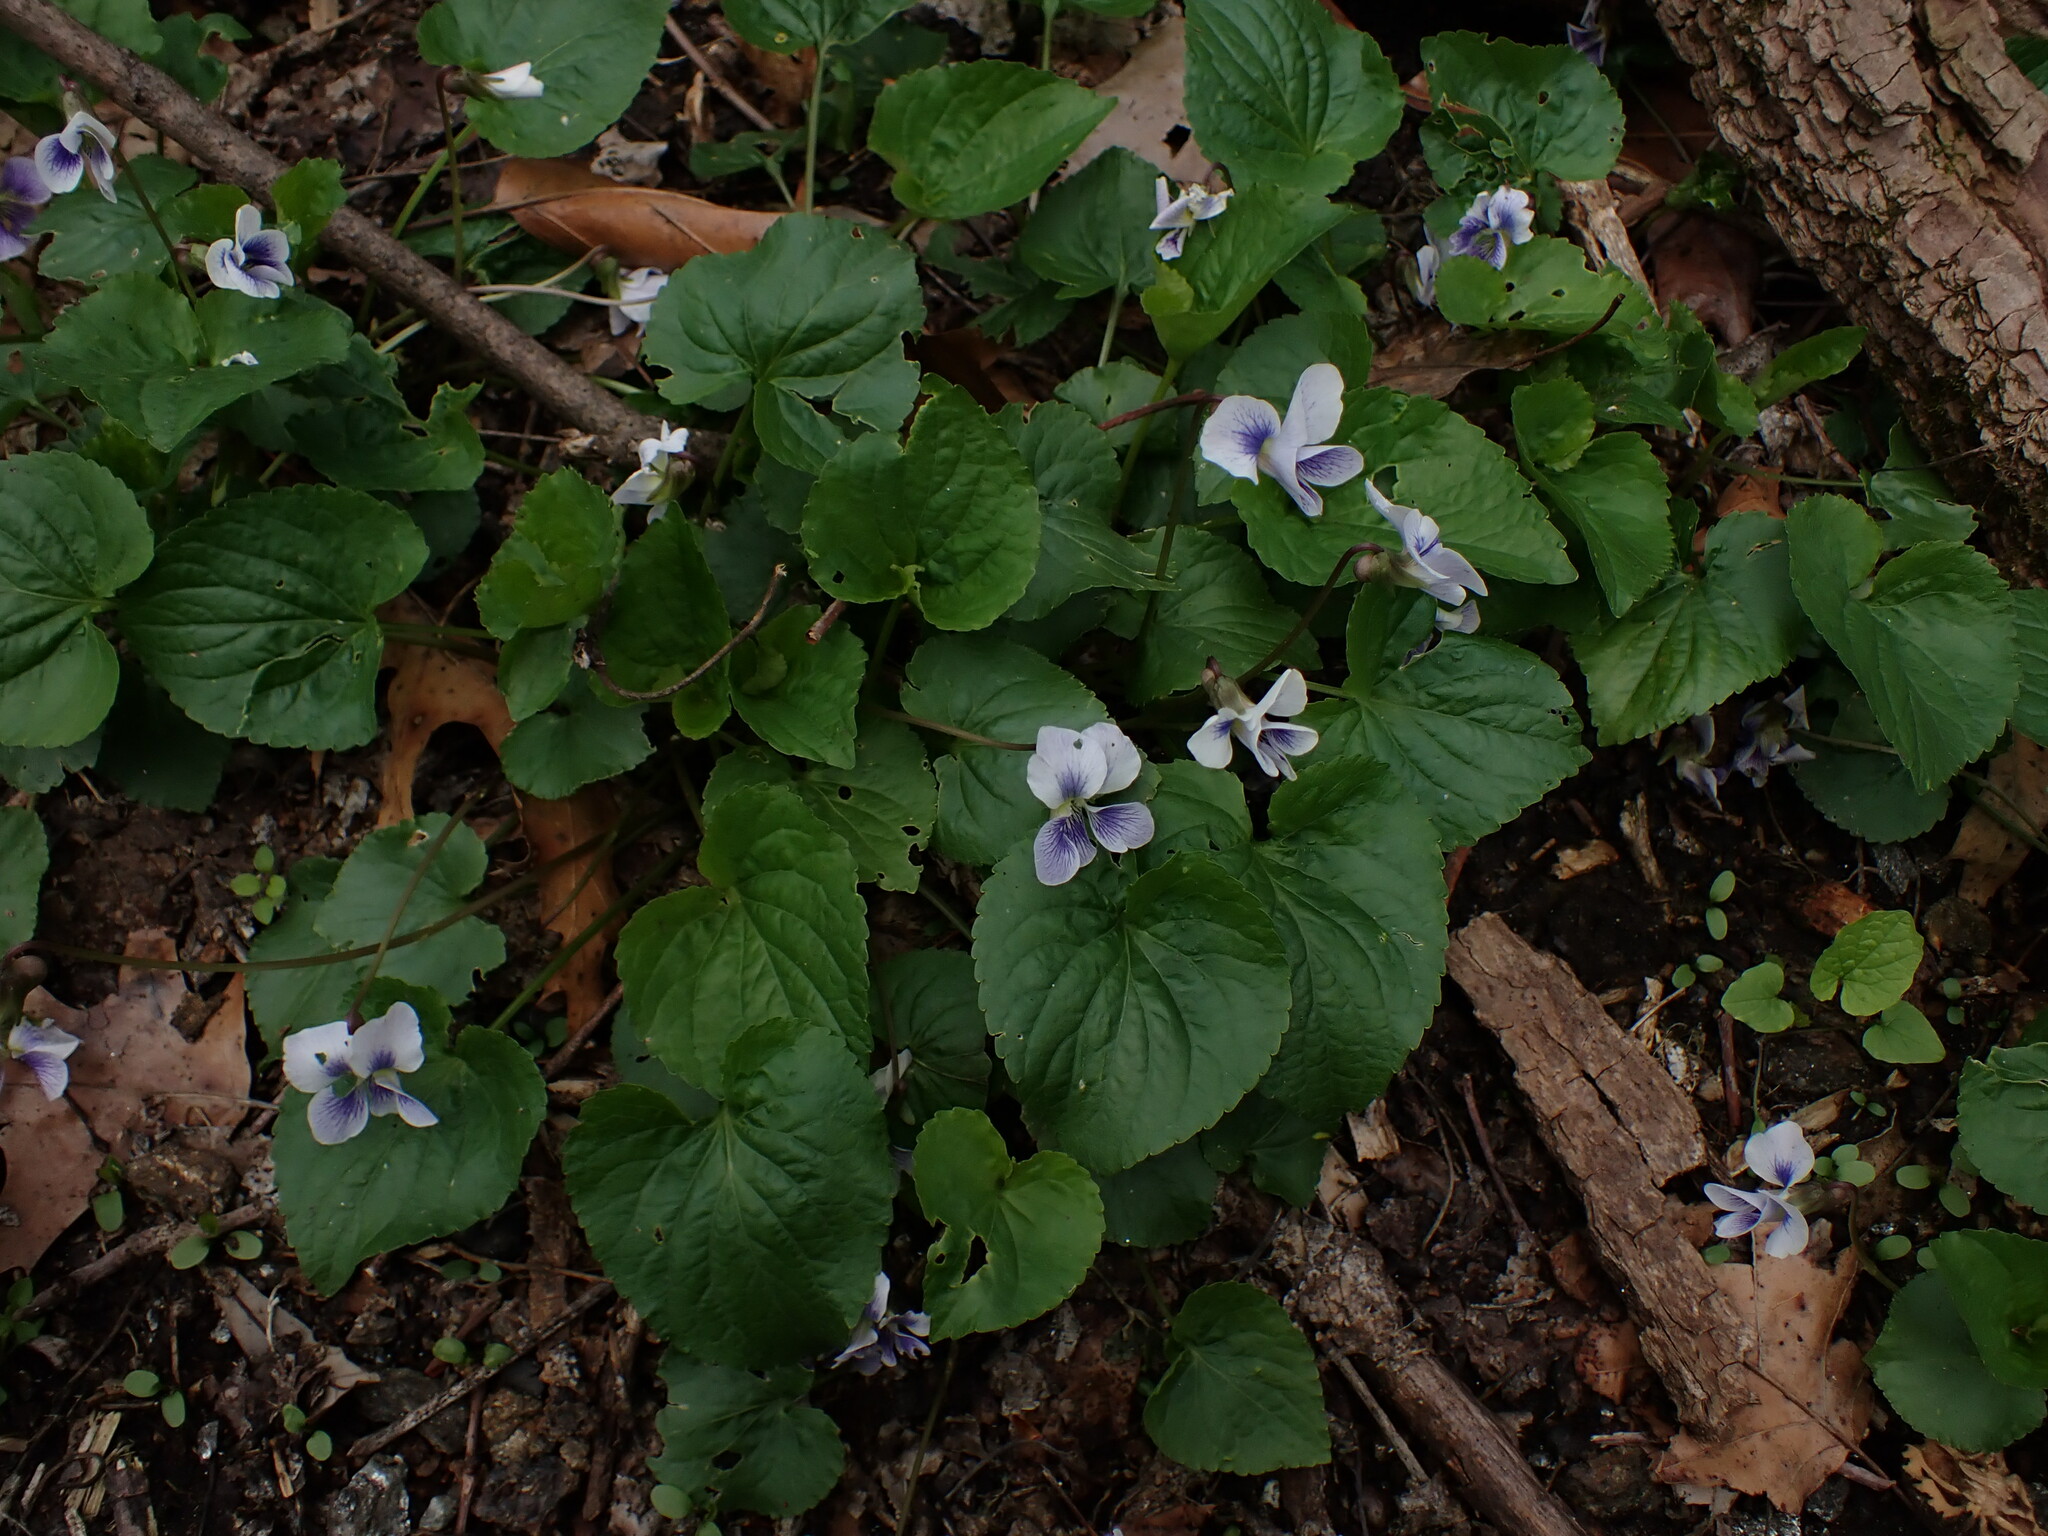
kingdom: Plantae
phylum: Tracheophyta
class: Magnoliopsida
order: Malpighiales
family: Violaceae
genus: Viola
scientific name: Viola sororia
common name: Dooryard violet
